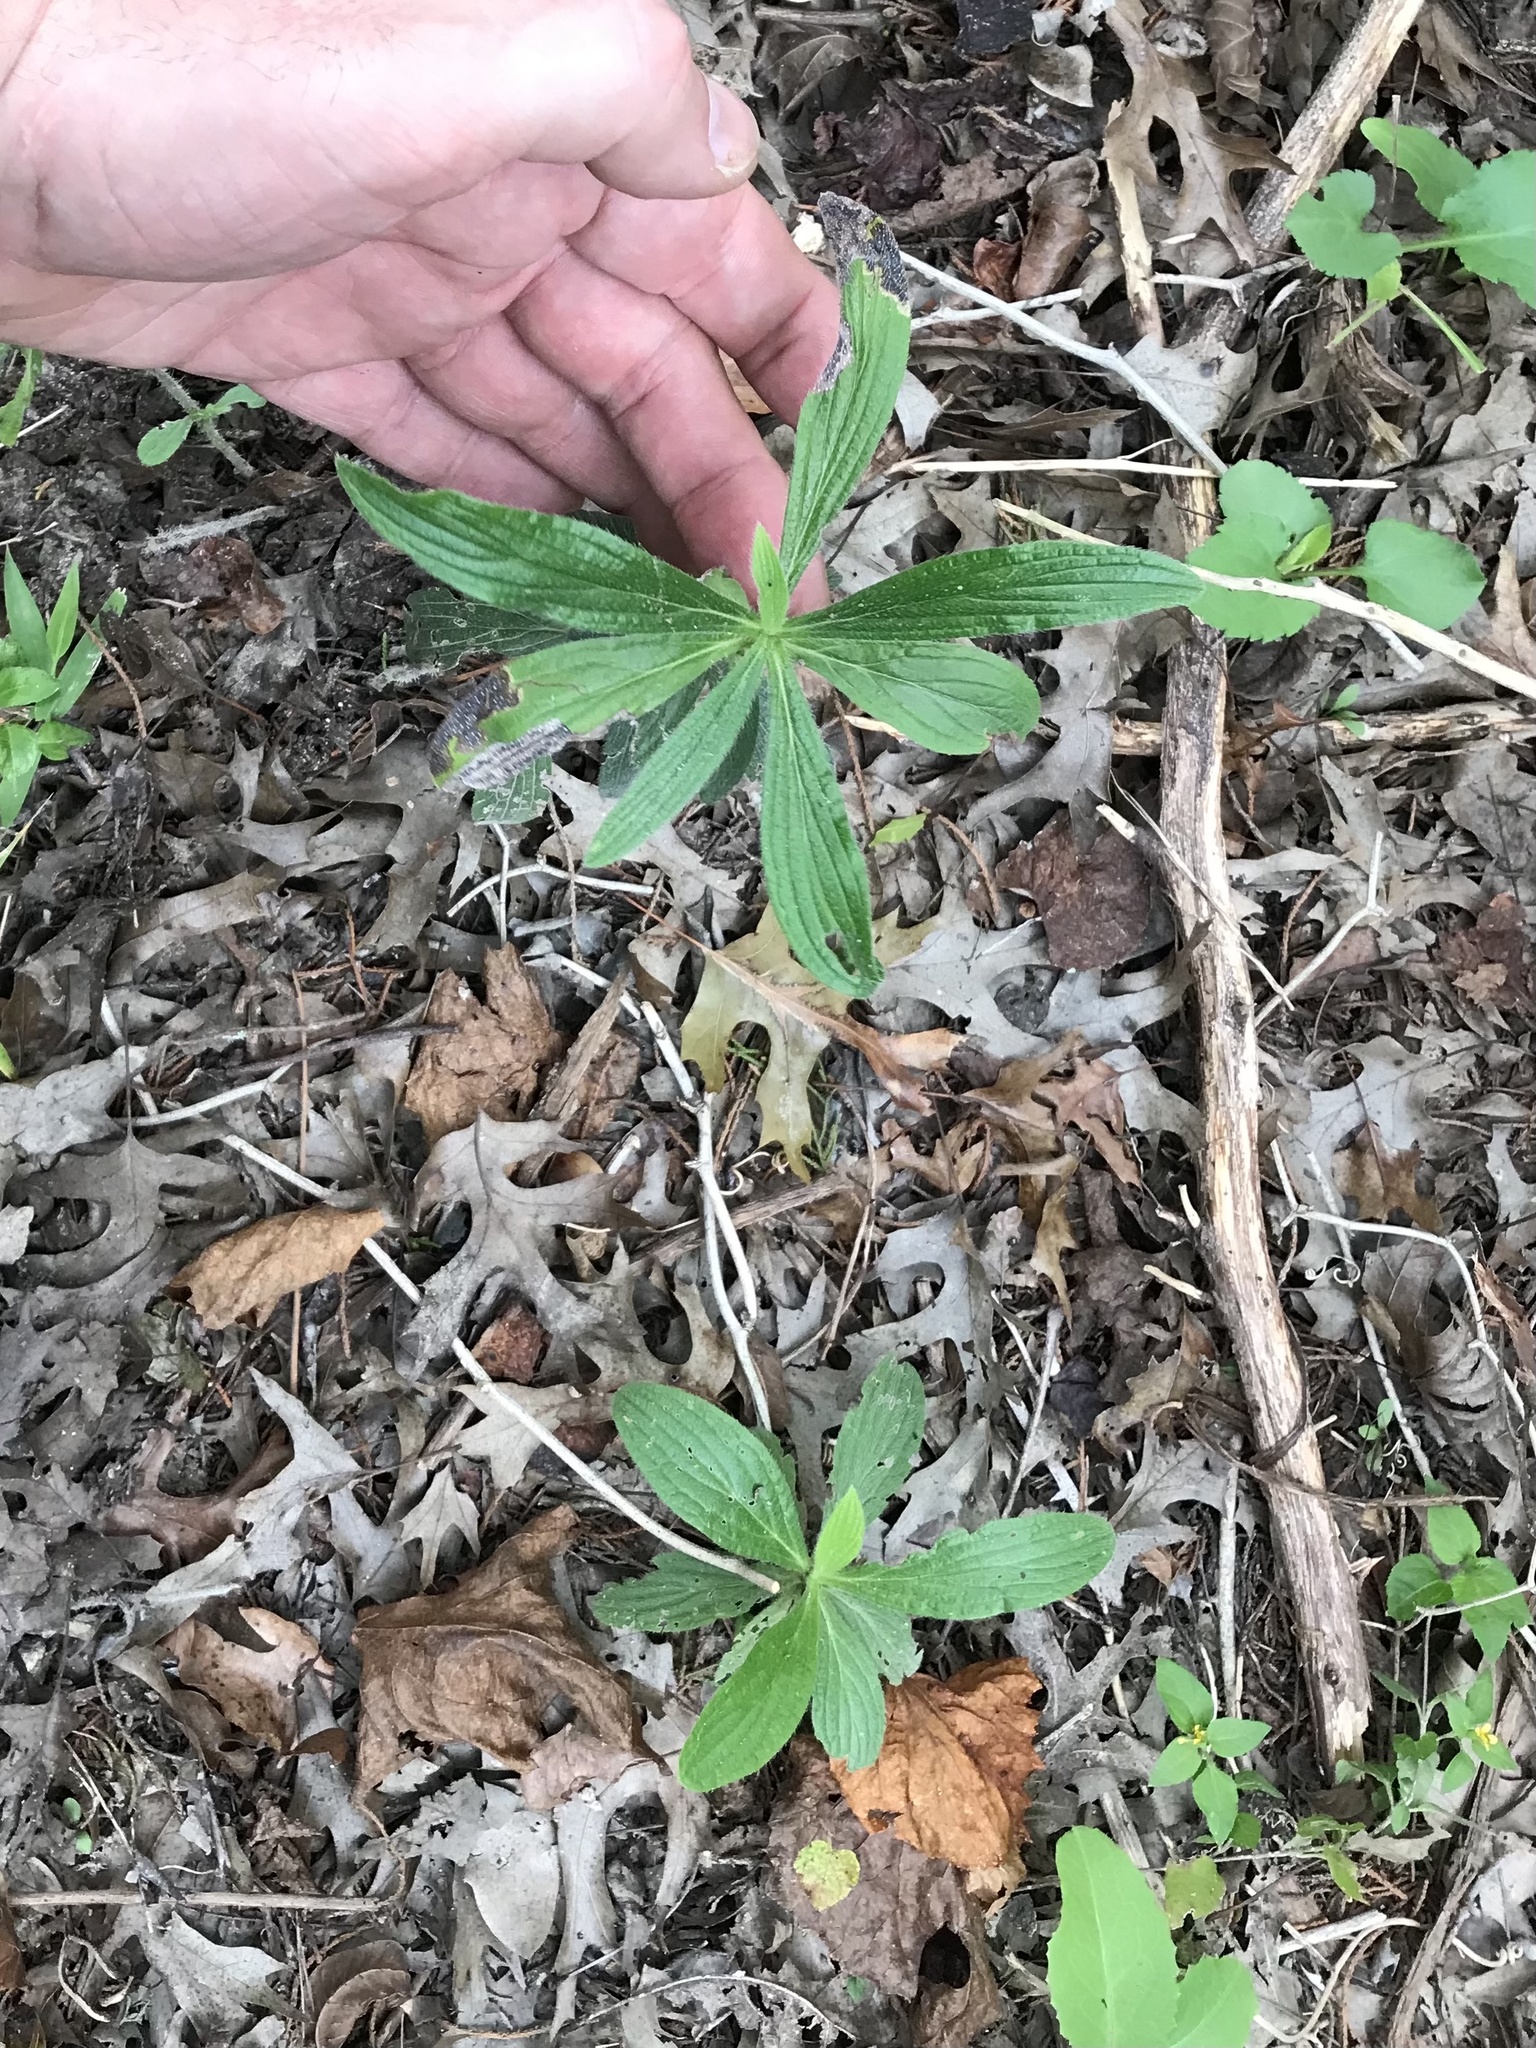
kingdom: Plantae
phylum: Tracheophyta
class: Magnoliopsida
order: Boraginales
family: Boraginaceae
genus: Lithospermum
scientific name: Lithospermum caroliniense
